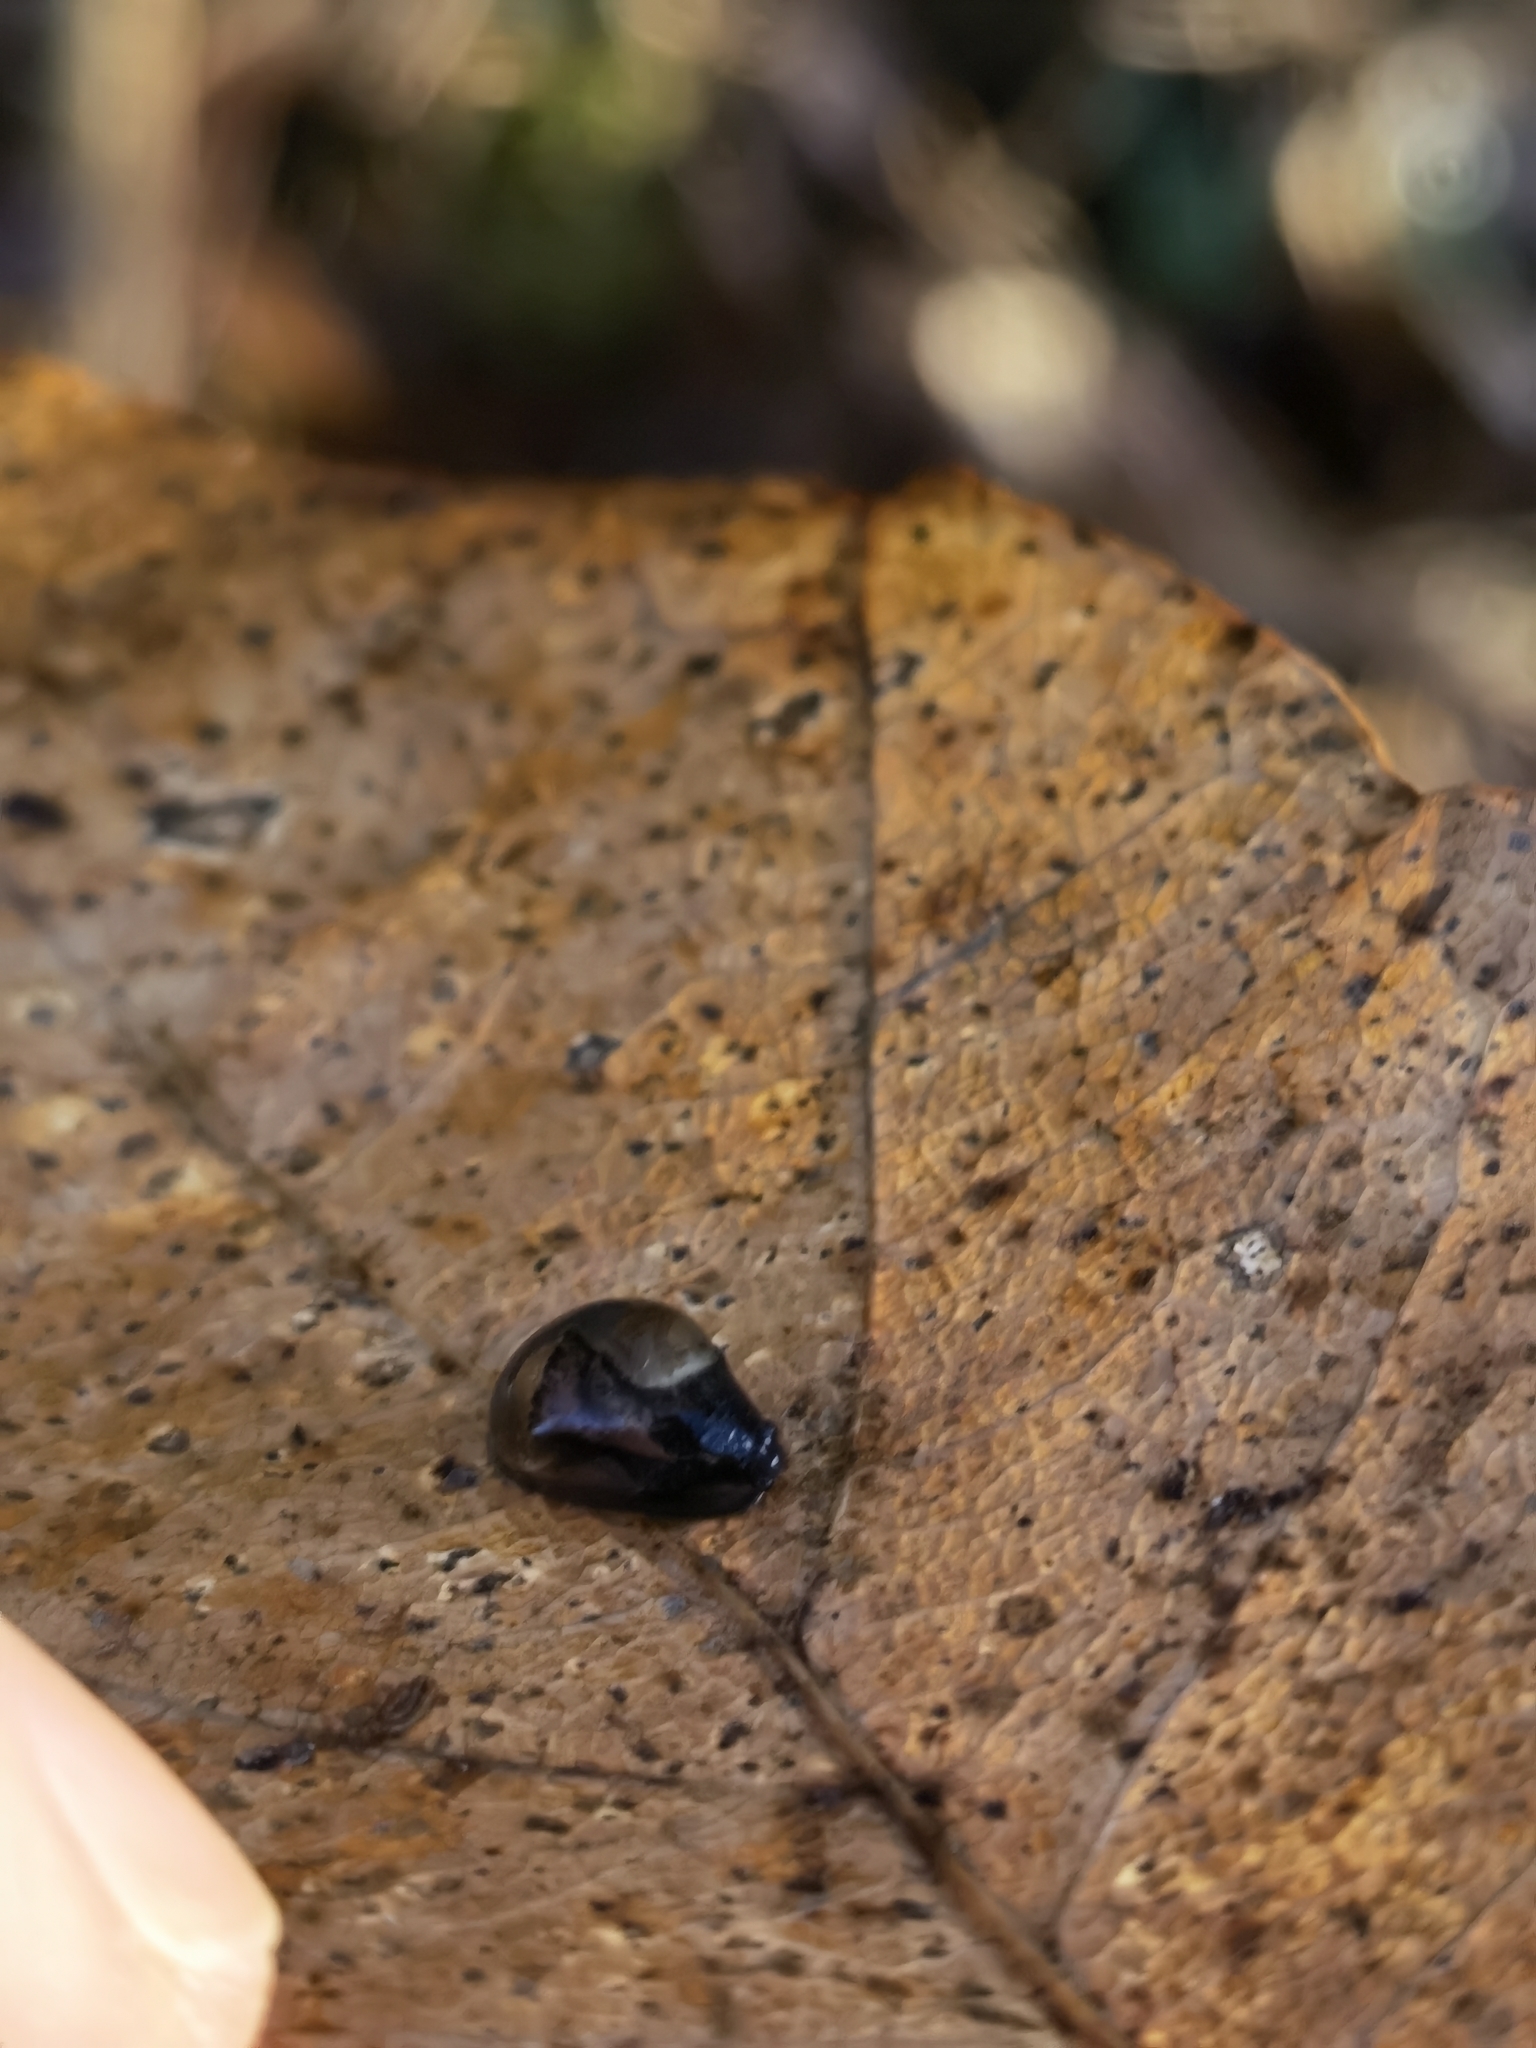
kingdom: Animalia
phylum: Mollusca
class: Gastropoda
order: Stylommatophora
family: Vitrinidae
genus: Phenacolimax
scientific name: Phenacolimax major
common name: Greater pellucid glass snail
